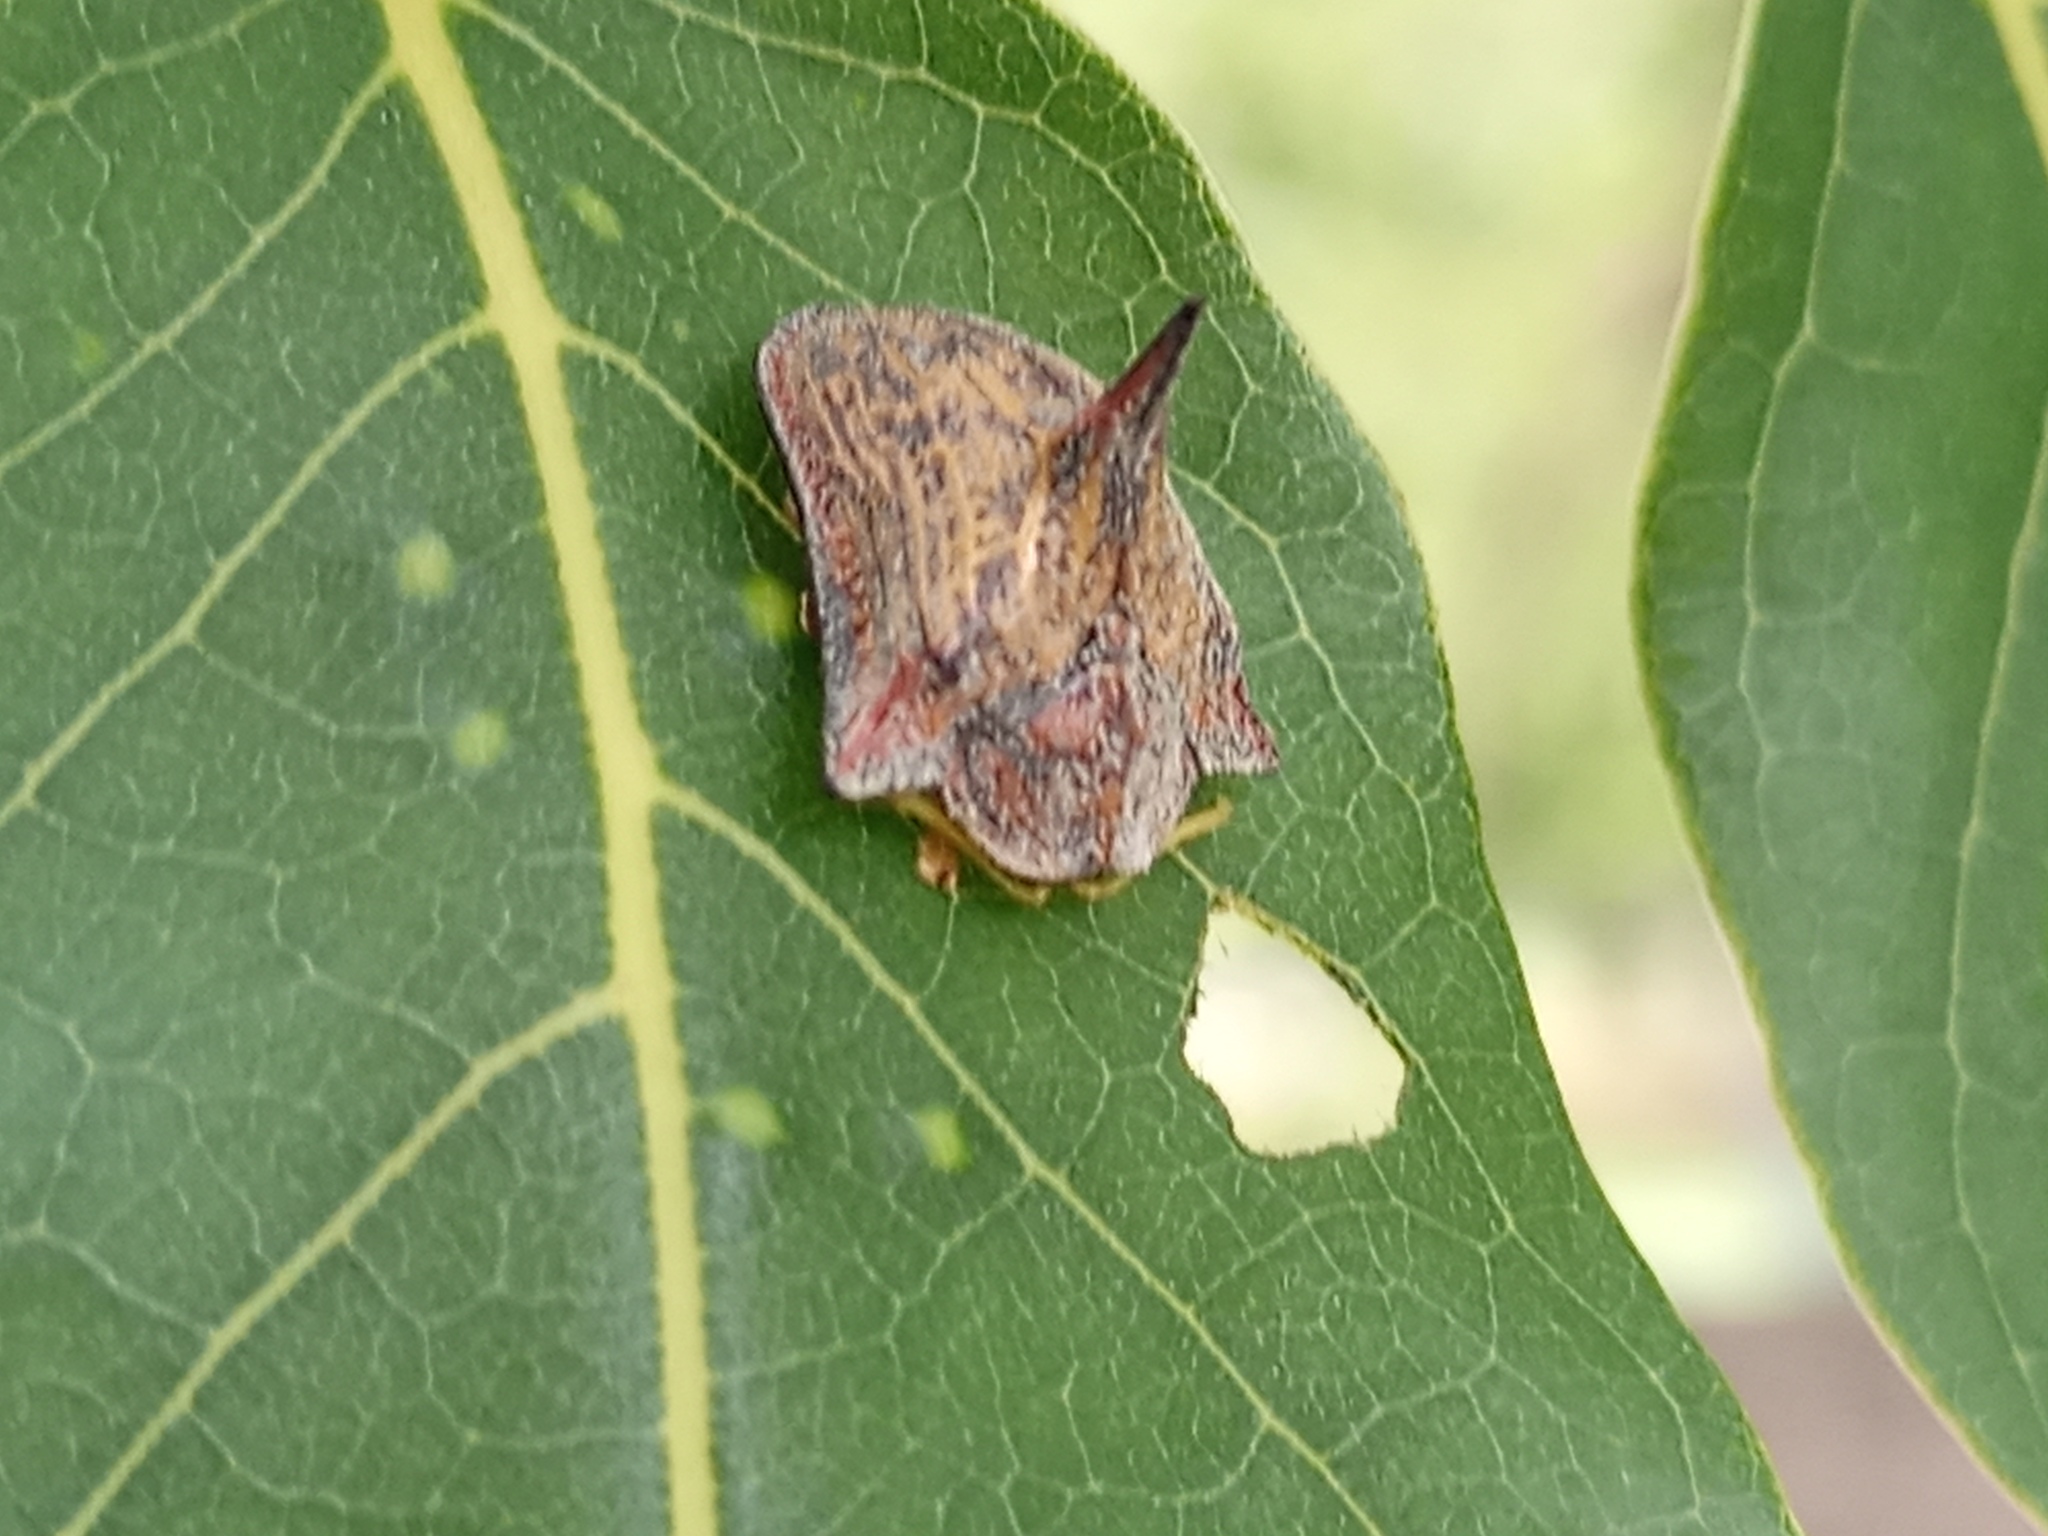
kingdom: Animalia
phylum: Arthropoda
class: Insecta
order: Coleoptera
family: Chrysomelidae
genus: Dorynota
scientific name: Dorynota cornigera
